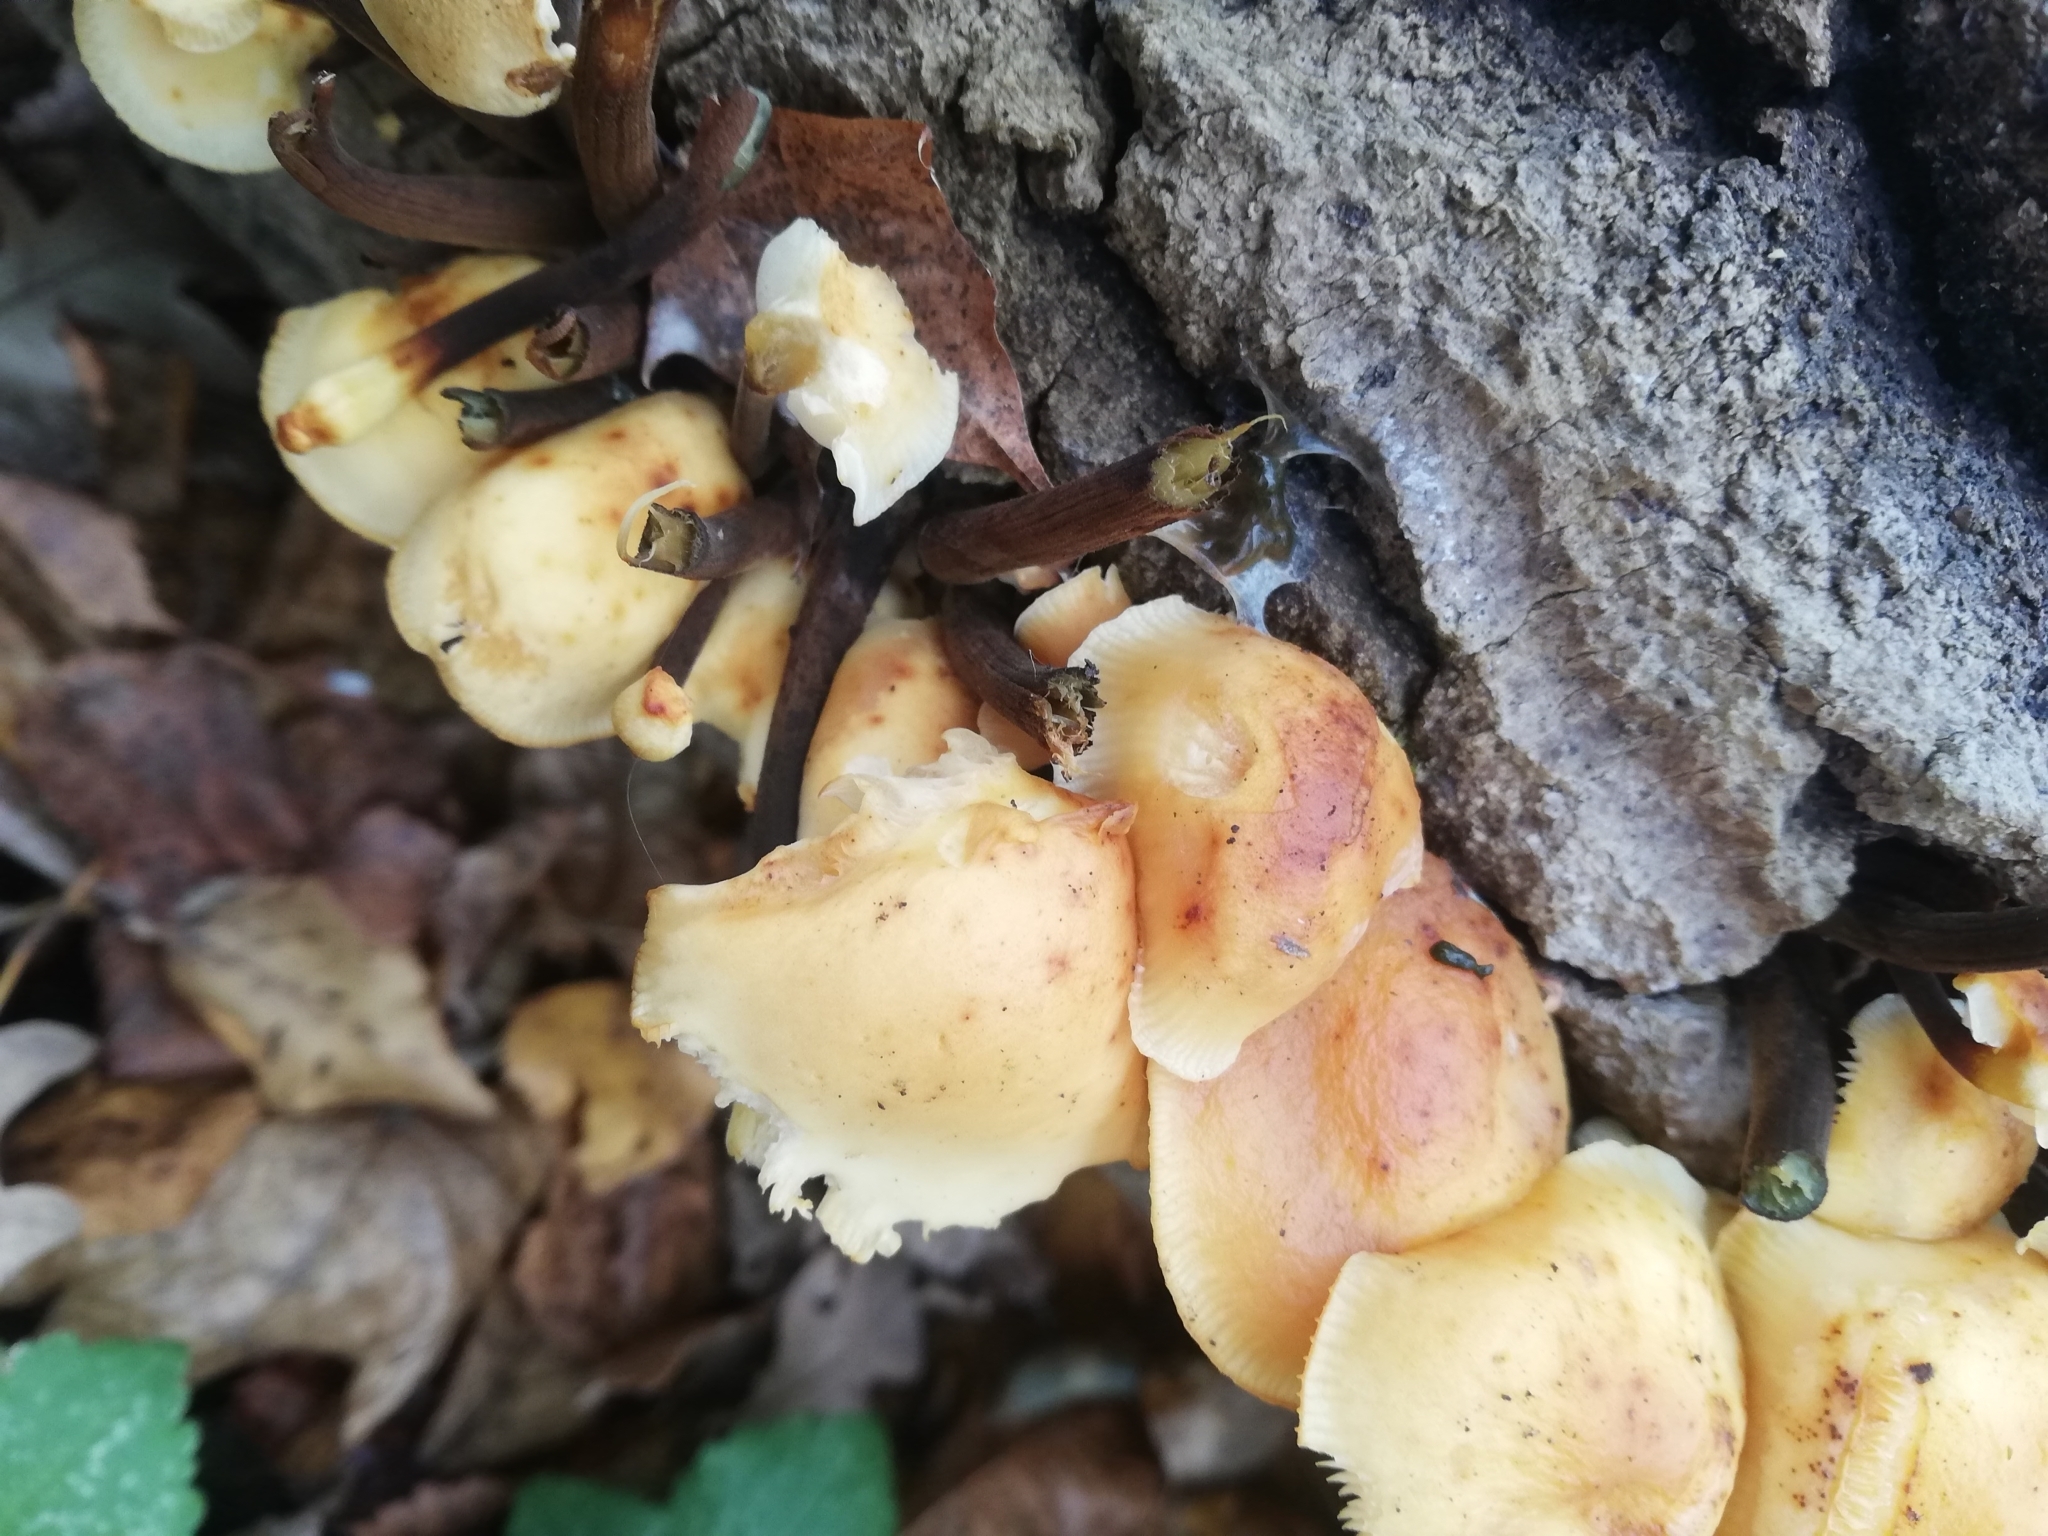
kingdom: Fungi
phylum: Basidiomycota
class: Agaricomycetes
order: Agaricales
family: Physalacriaceae
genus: Flammulina
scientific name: Flammulina
